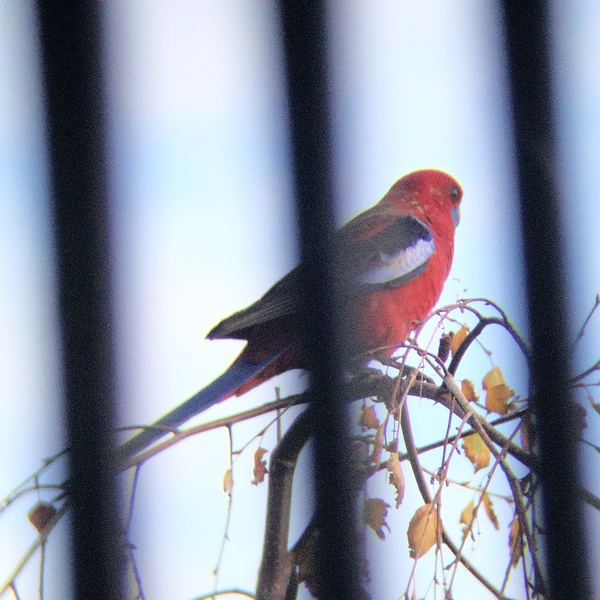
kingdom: Animalia
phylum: Chordata
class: Aves
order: Psittaciformes
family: Psittacidae
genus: Platycercus
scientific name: Platycercus elegans
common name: Crimson rosella
